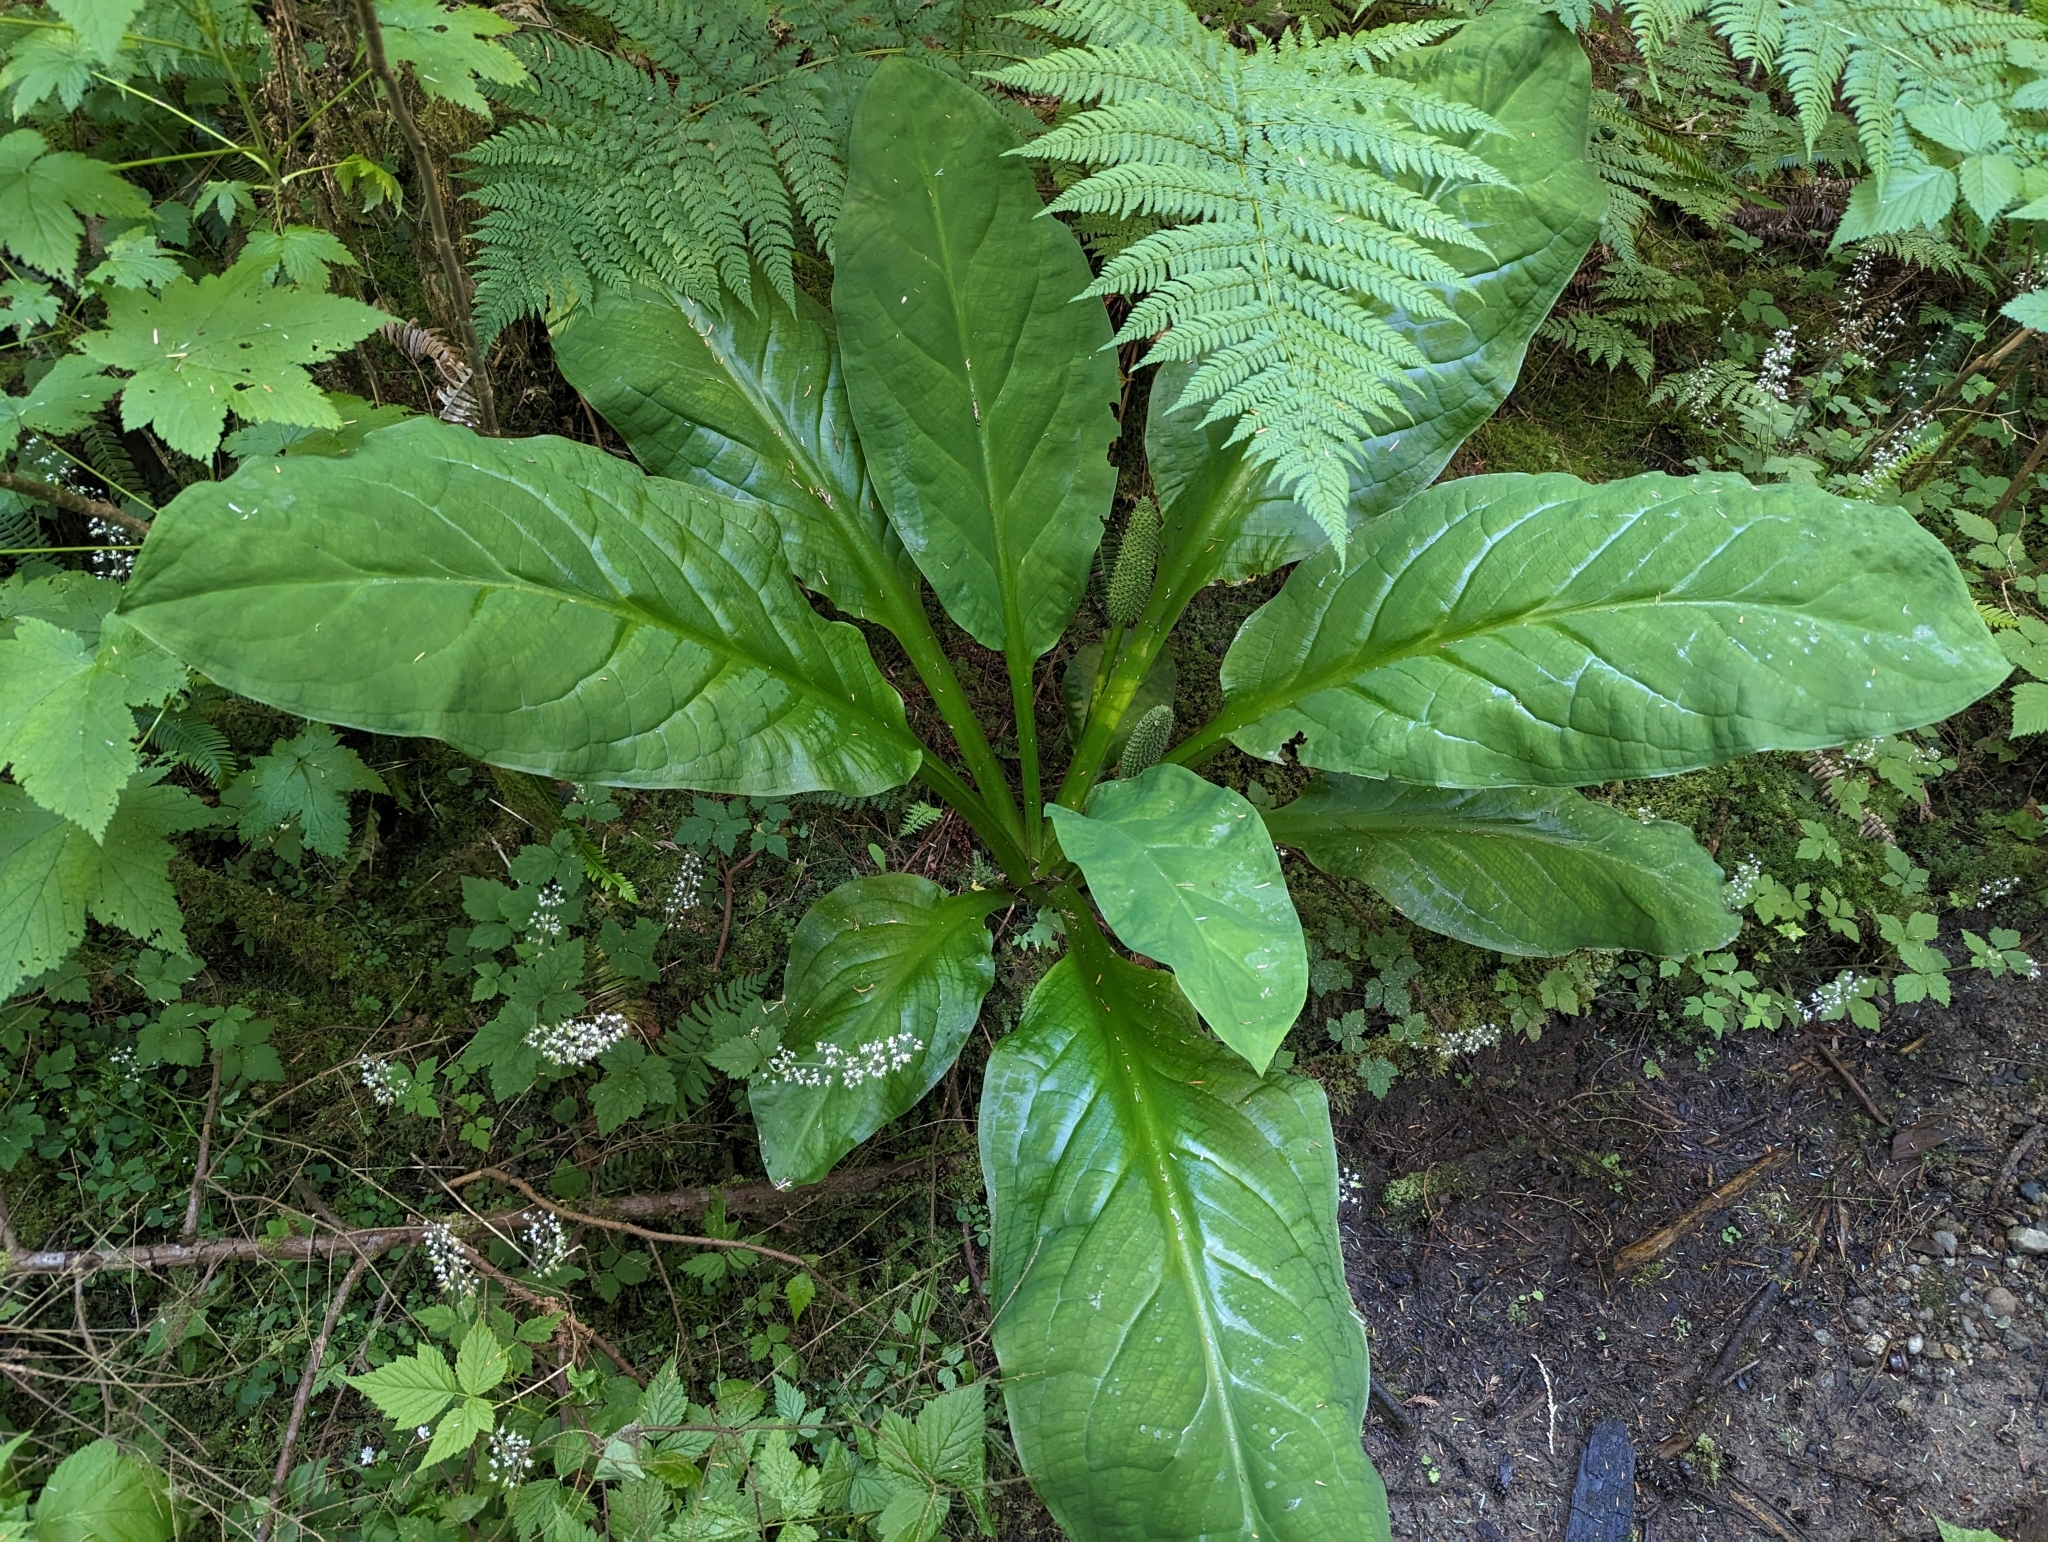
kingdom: Plantae
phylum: Tracheophyta
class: Liliopsida
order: Alismatales
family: Araceae
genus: Lysichiton
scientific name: Lysichiton americanus
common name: American skunk cabbage
